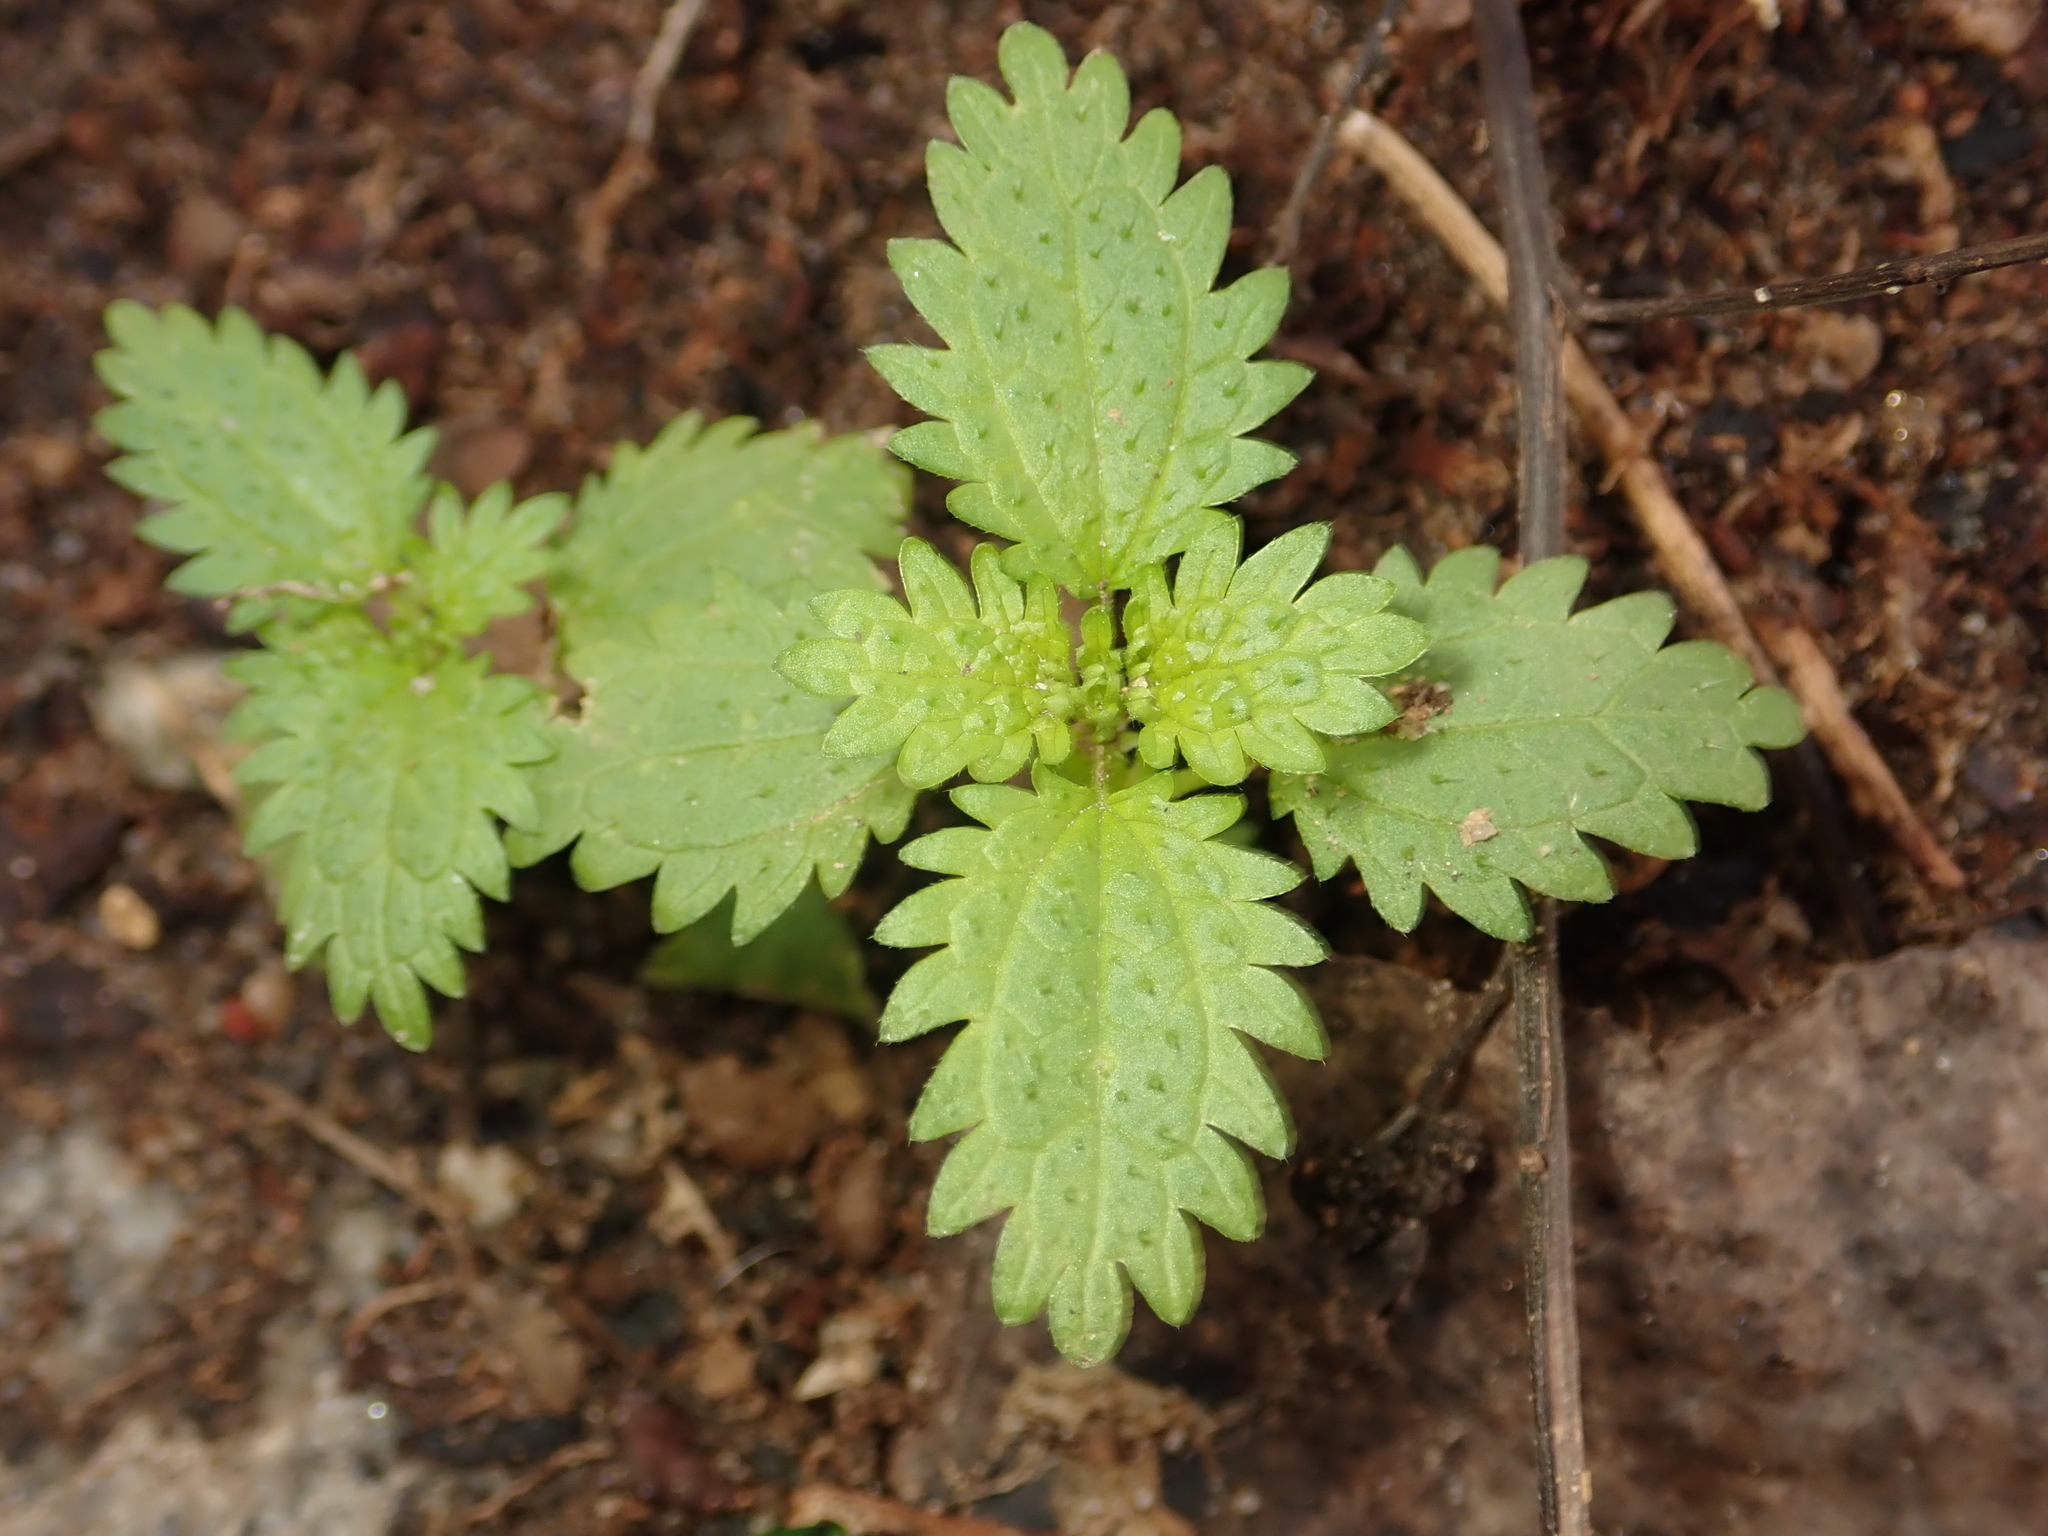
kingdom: Plantae
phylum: Tracheophyta
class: Magnoliopsida
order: Rosales
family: Urticaceae
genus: Urtica
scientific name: Urtica urens
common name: Dwarf nettle
